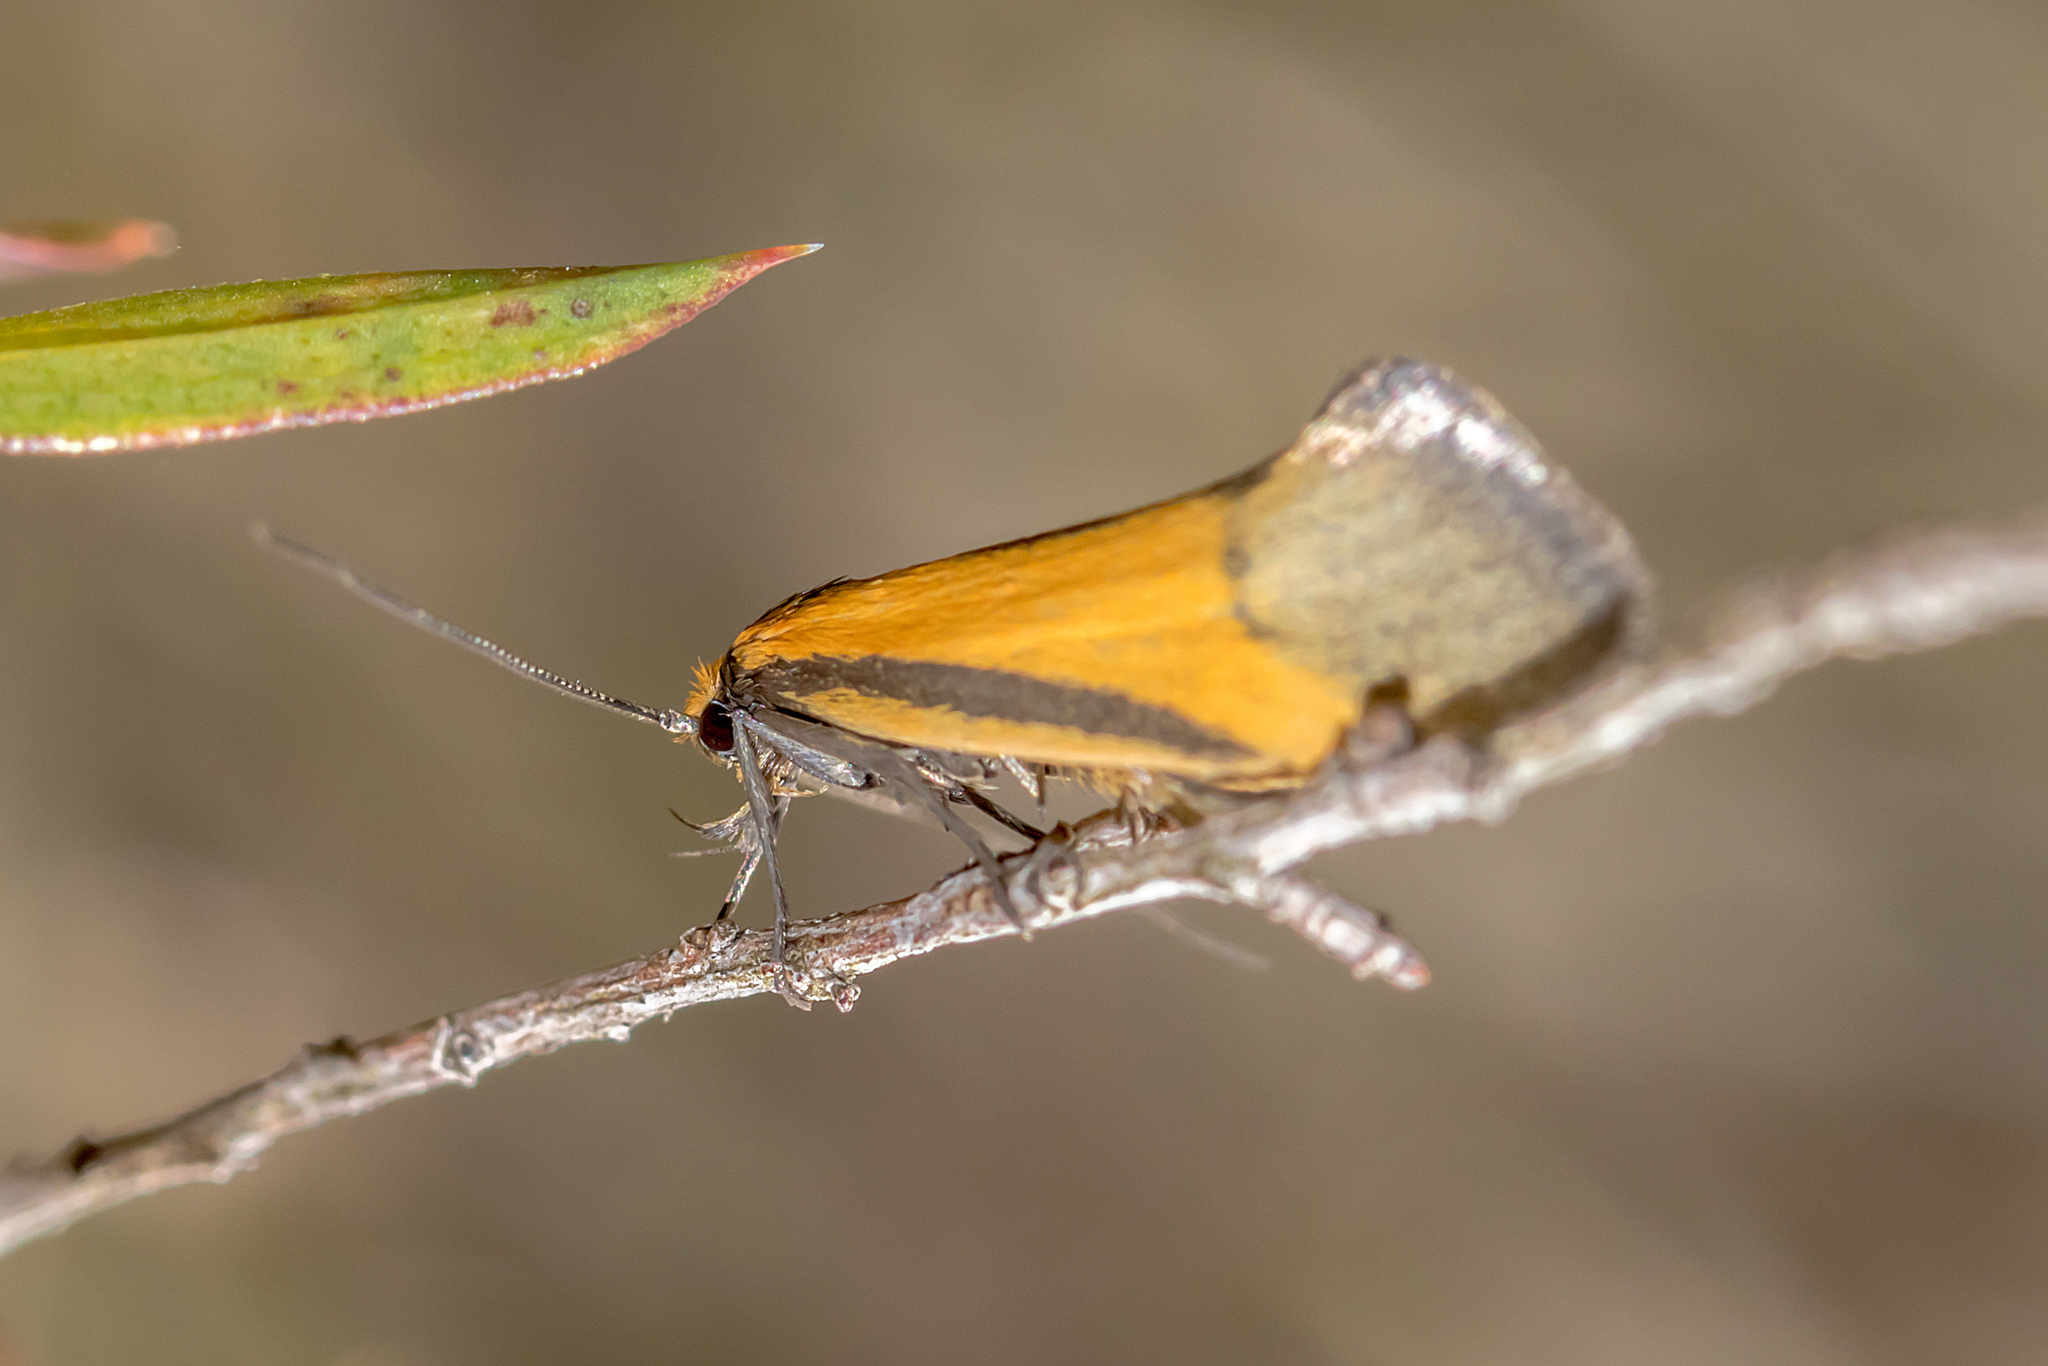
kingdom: Animalia
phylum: Arthropoda
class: Insecta
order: Lepidoptera
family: Oecophoridae
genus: Philobota
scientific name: Philobota arabella
